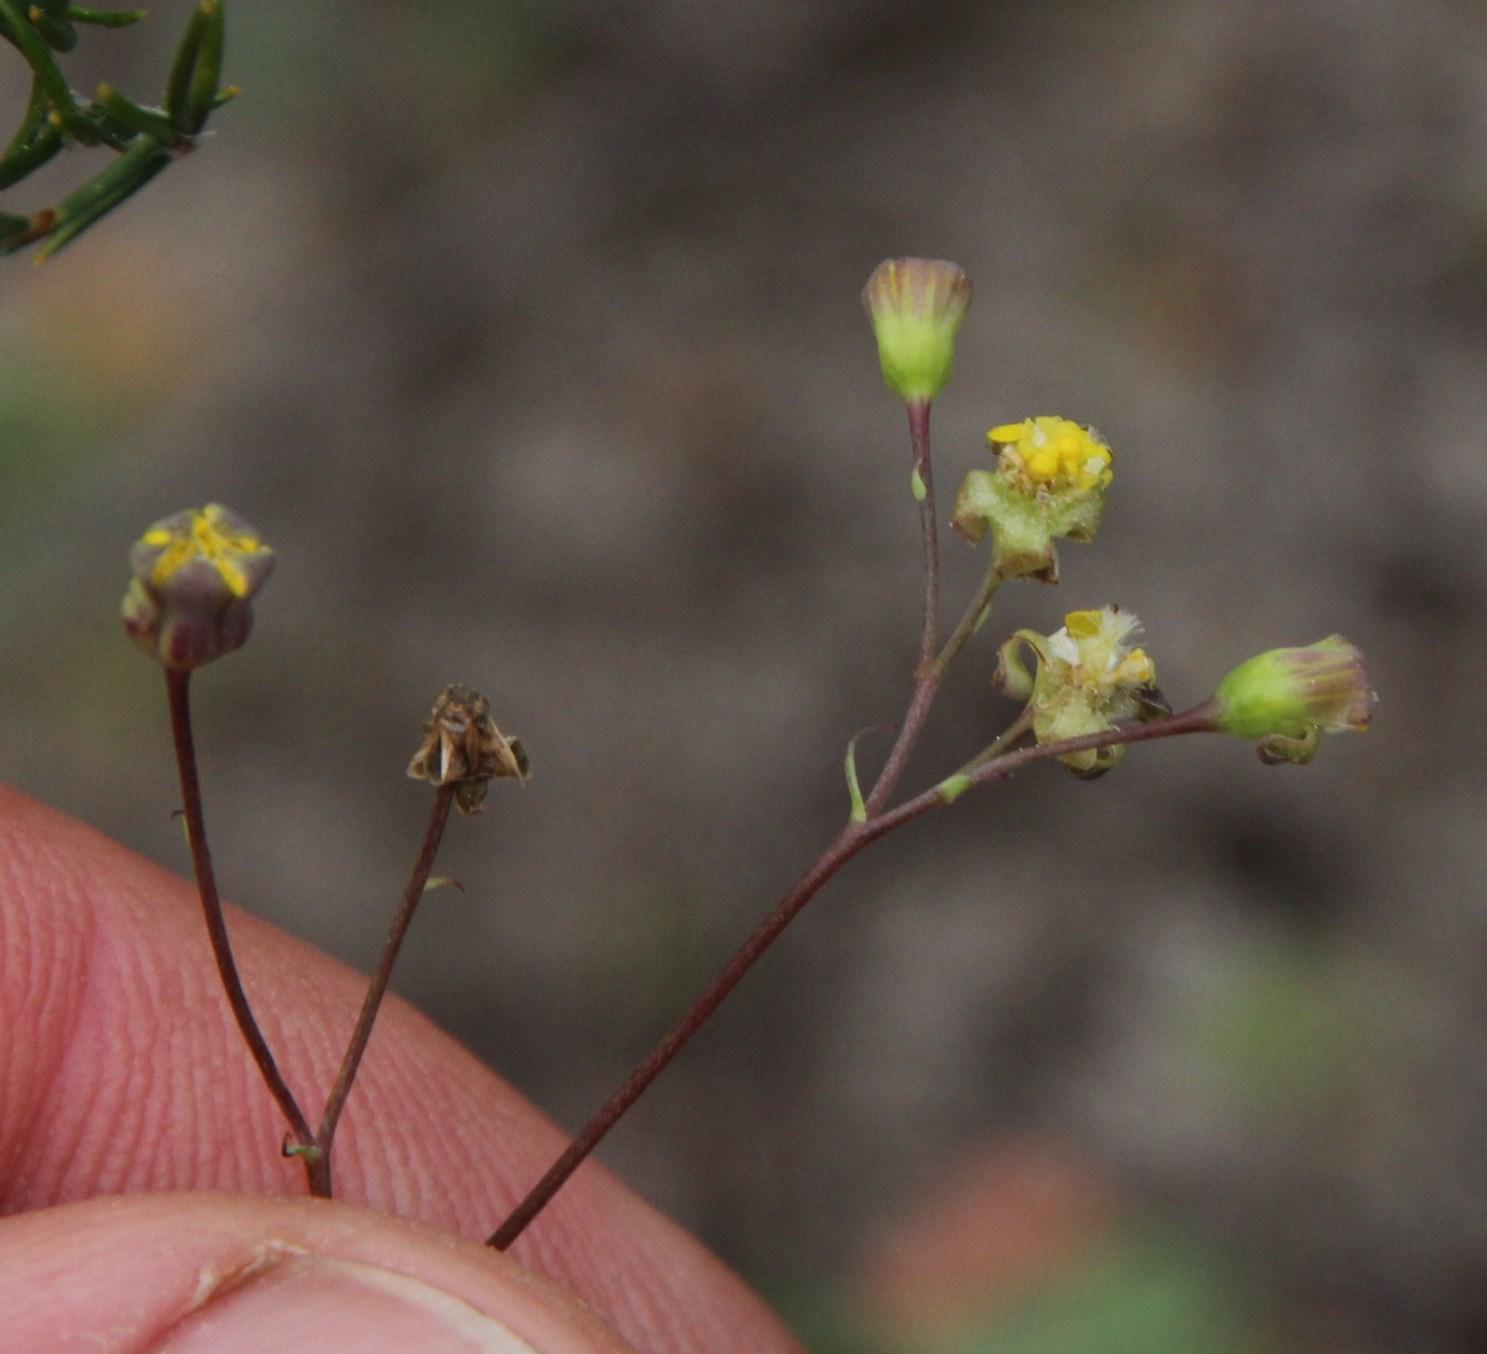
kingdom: Plantae
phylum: Tracheophyta
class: Magnoliopsida
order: Asterales
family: Asteraceae
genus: Gymnodiscus
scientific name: Gymnodiscus capillaris
